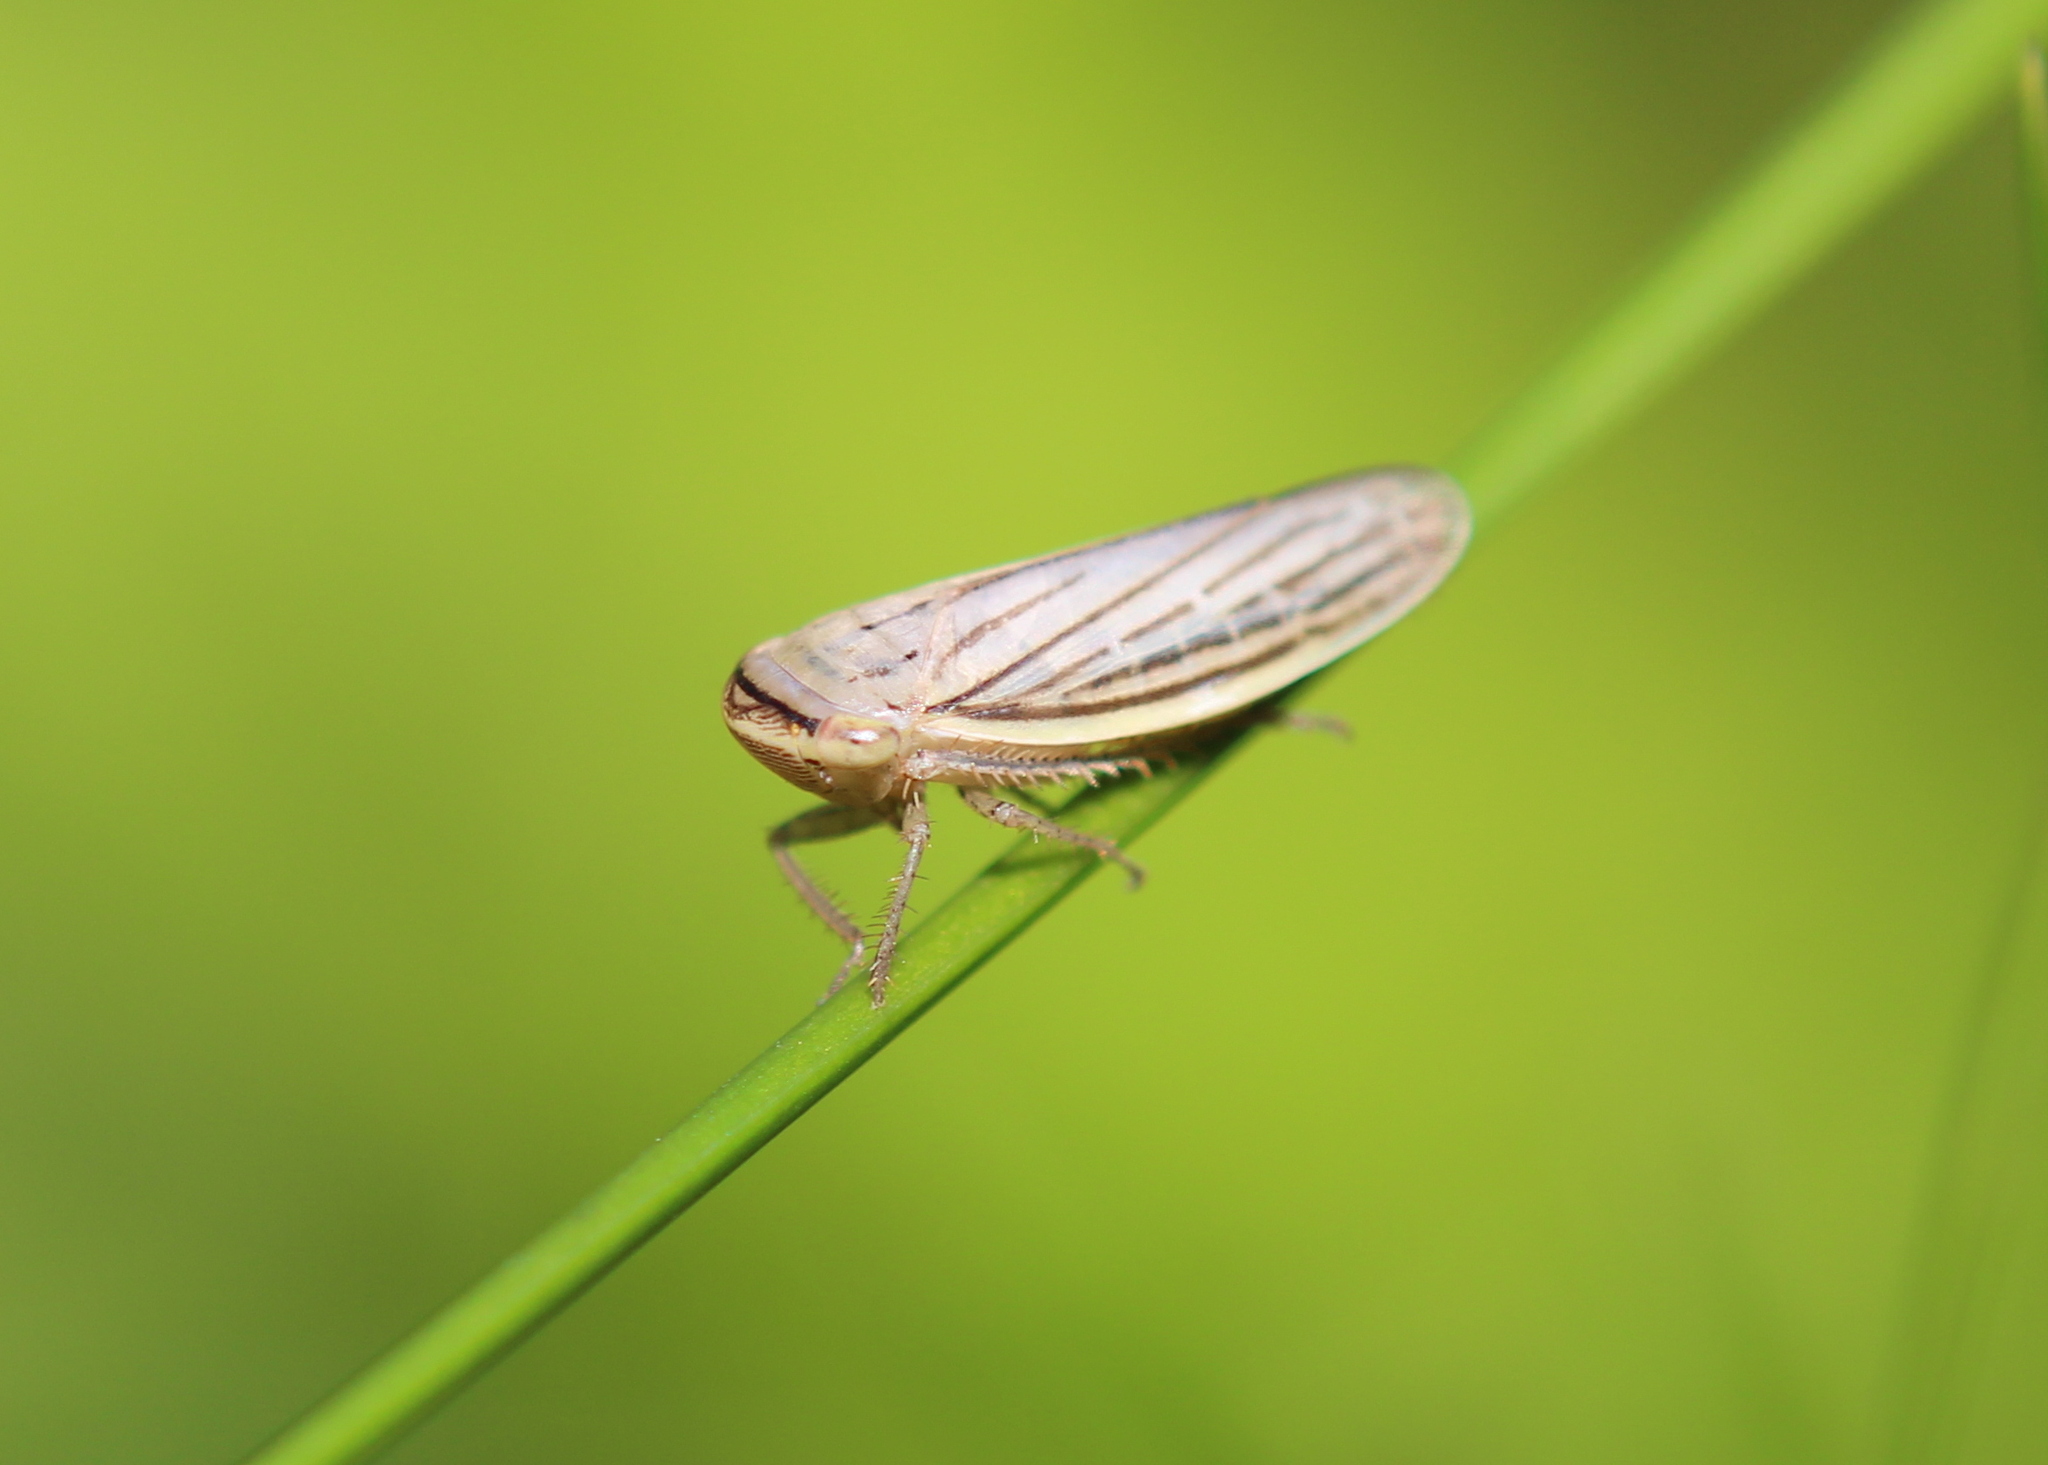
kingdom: Animalia
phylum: Arthropoda
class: Insecta
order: Hemiptera
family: Cicadellidae
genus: Athysanus
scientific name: Athysanus argentarius
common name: Silver leafhopper
